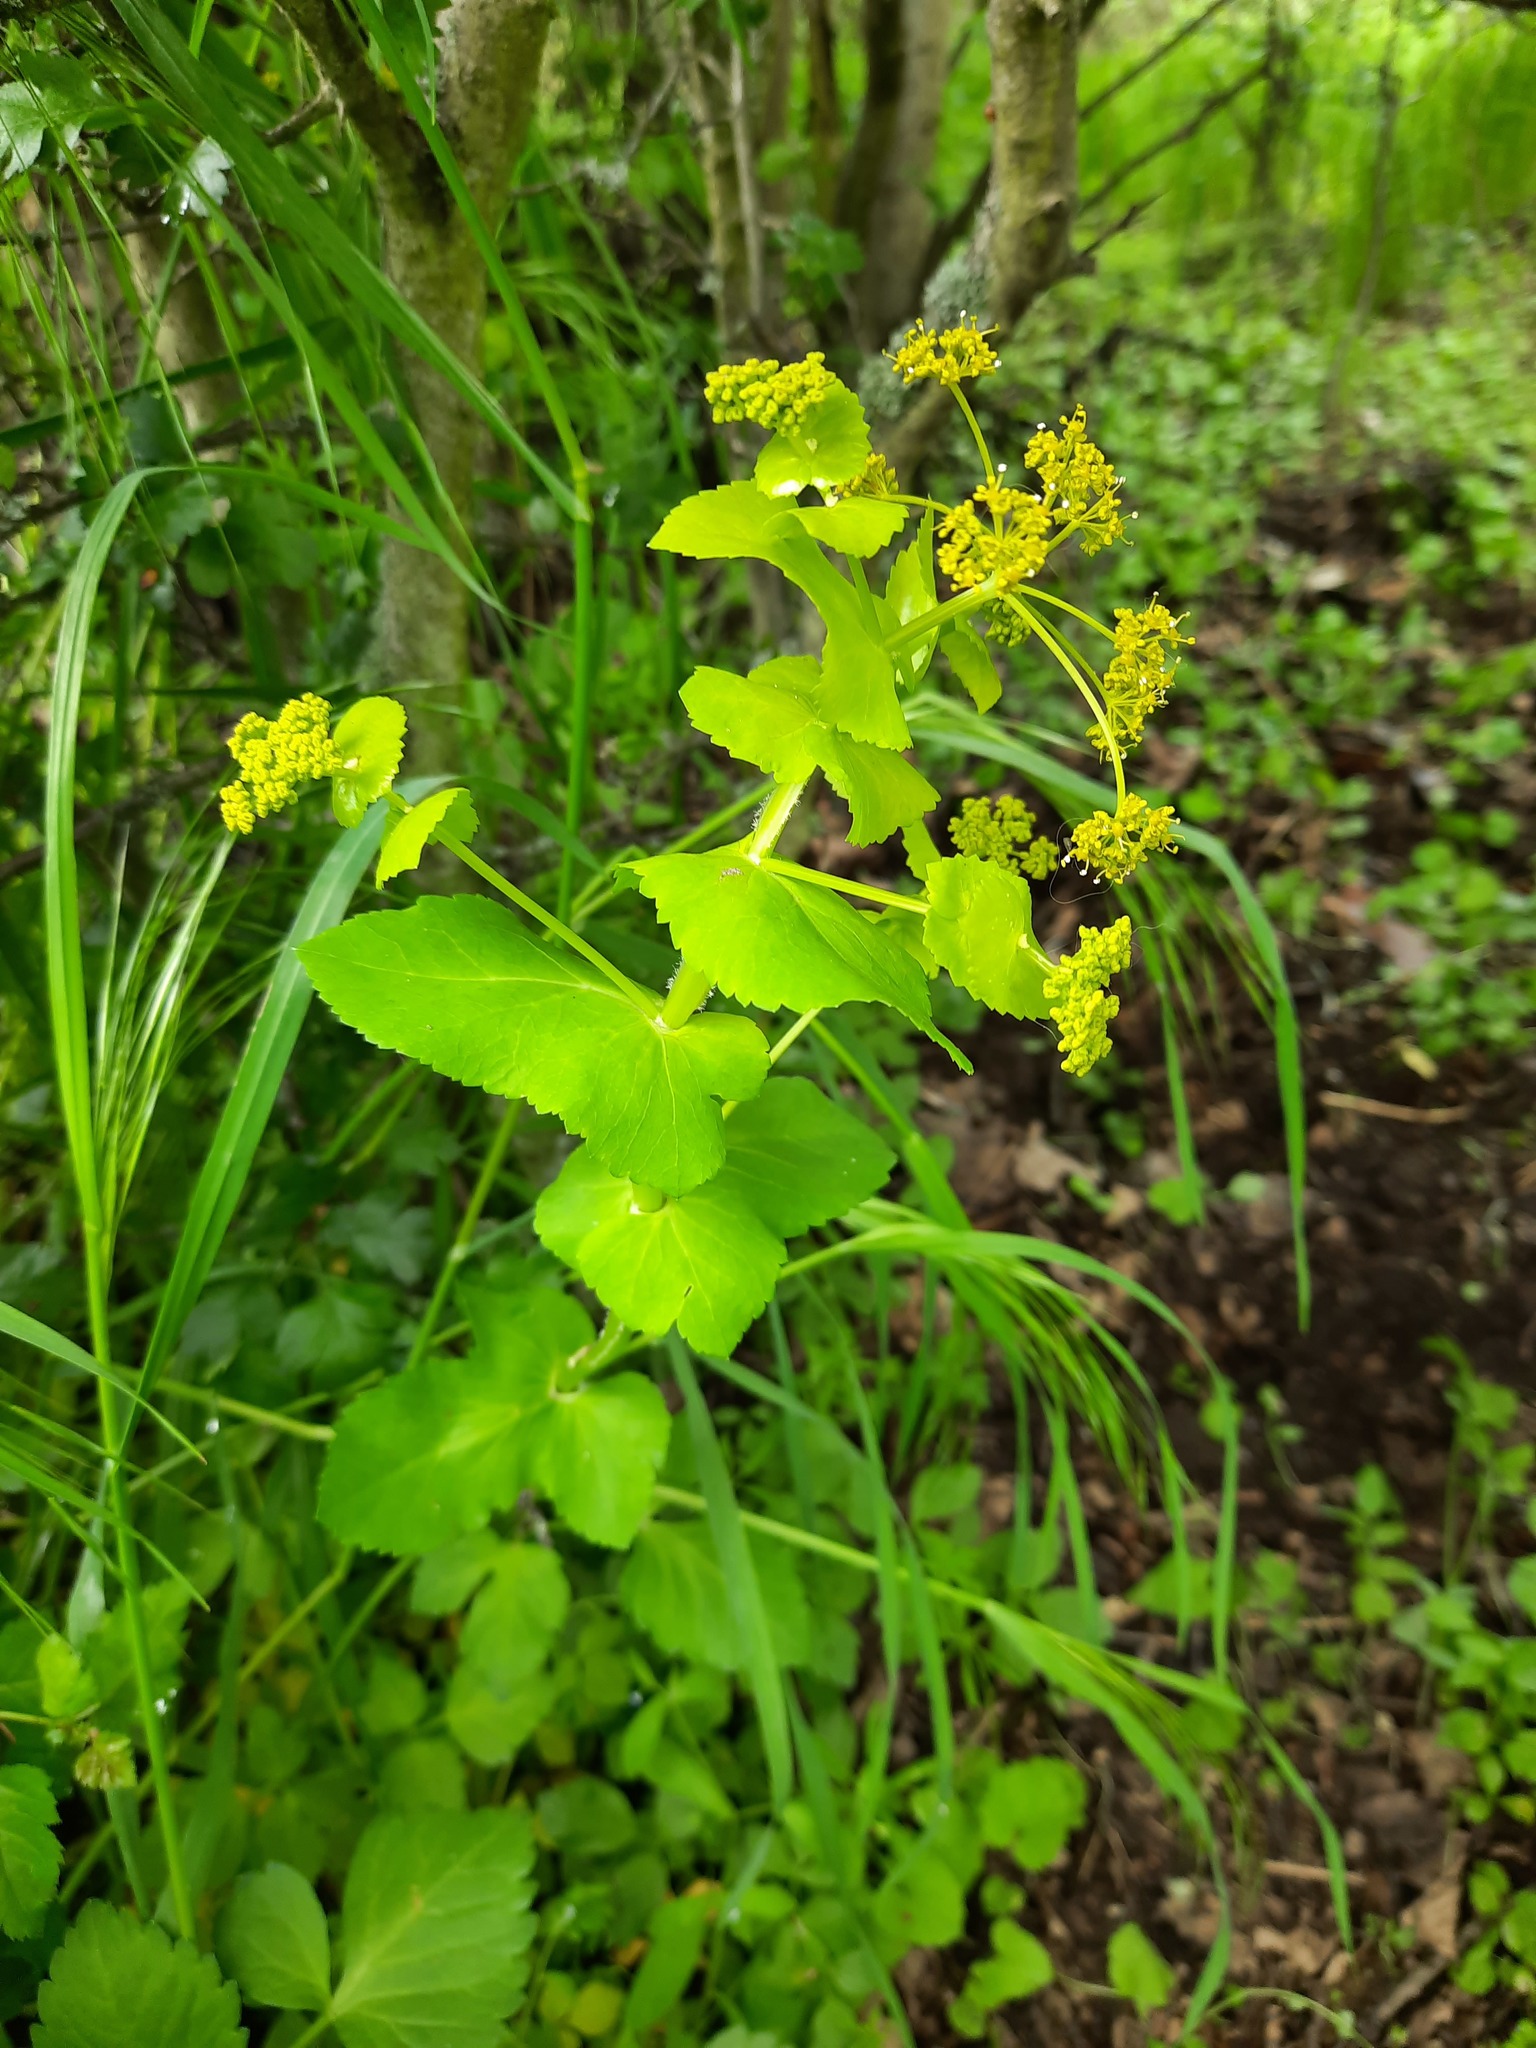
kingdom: Plantae
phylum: Tracheophyta
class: Magnoliopsida
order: Apiales
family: Apiaceae
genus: Smyrnium
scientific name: Smyrnium perfoliatum
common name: Perfoliate alexanders
